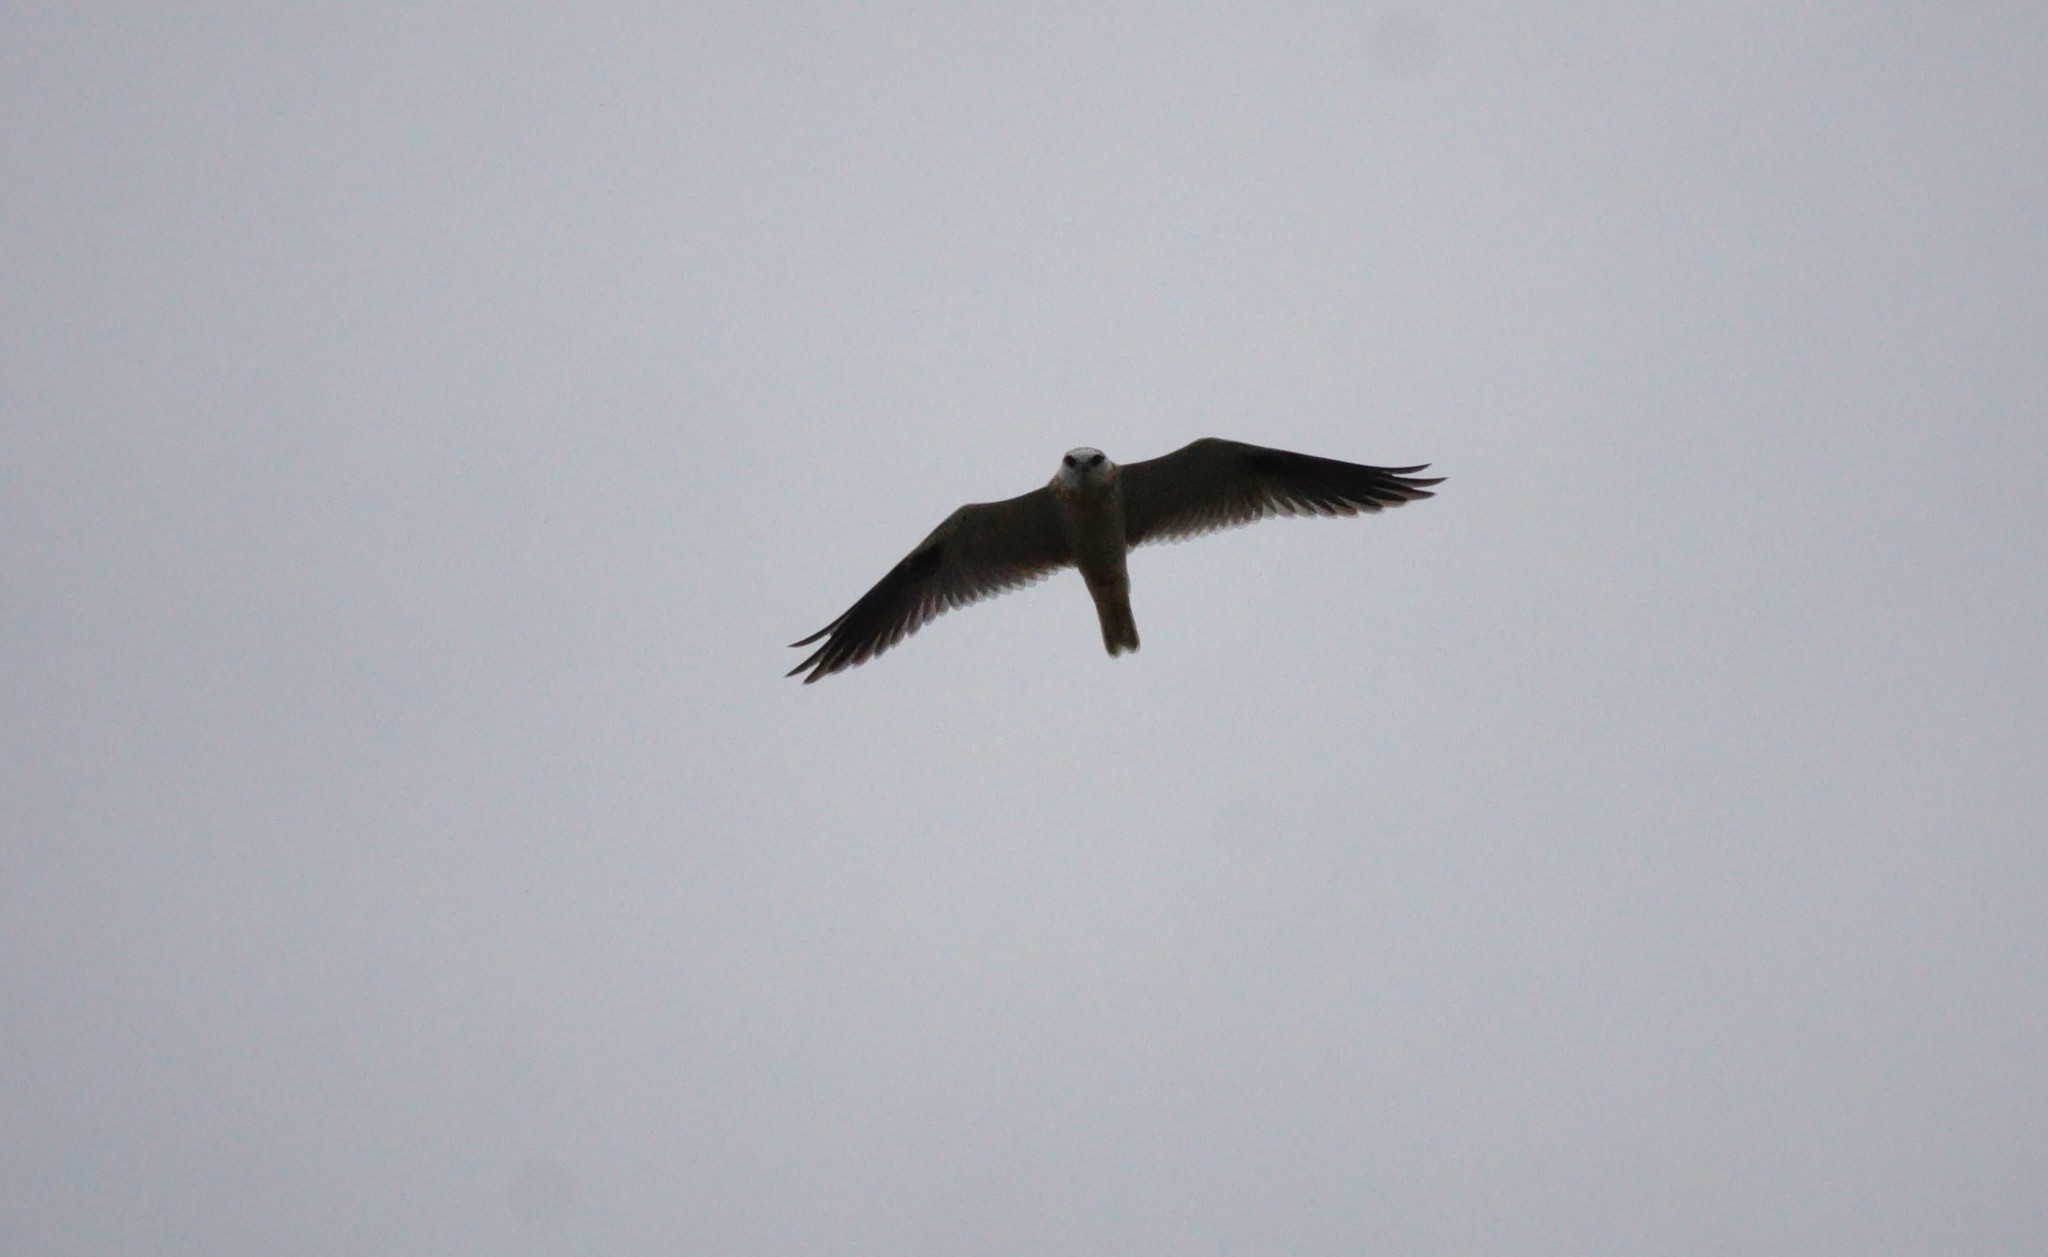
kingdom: Animalia
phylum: Chordata
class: Aves
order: Accipitriformes
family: Accipitridae
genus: Elanus
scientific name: Elanus axillaris
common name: Black-shouldered kite
